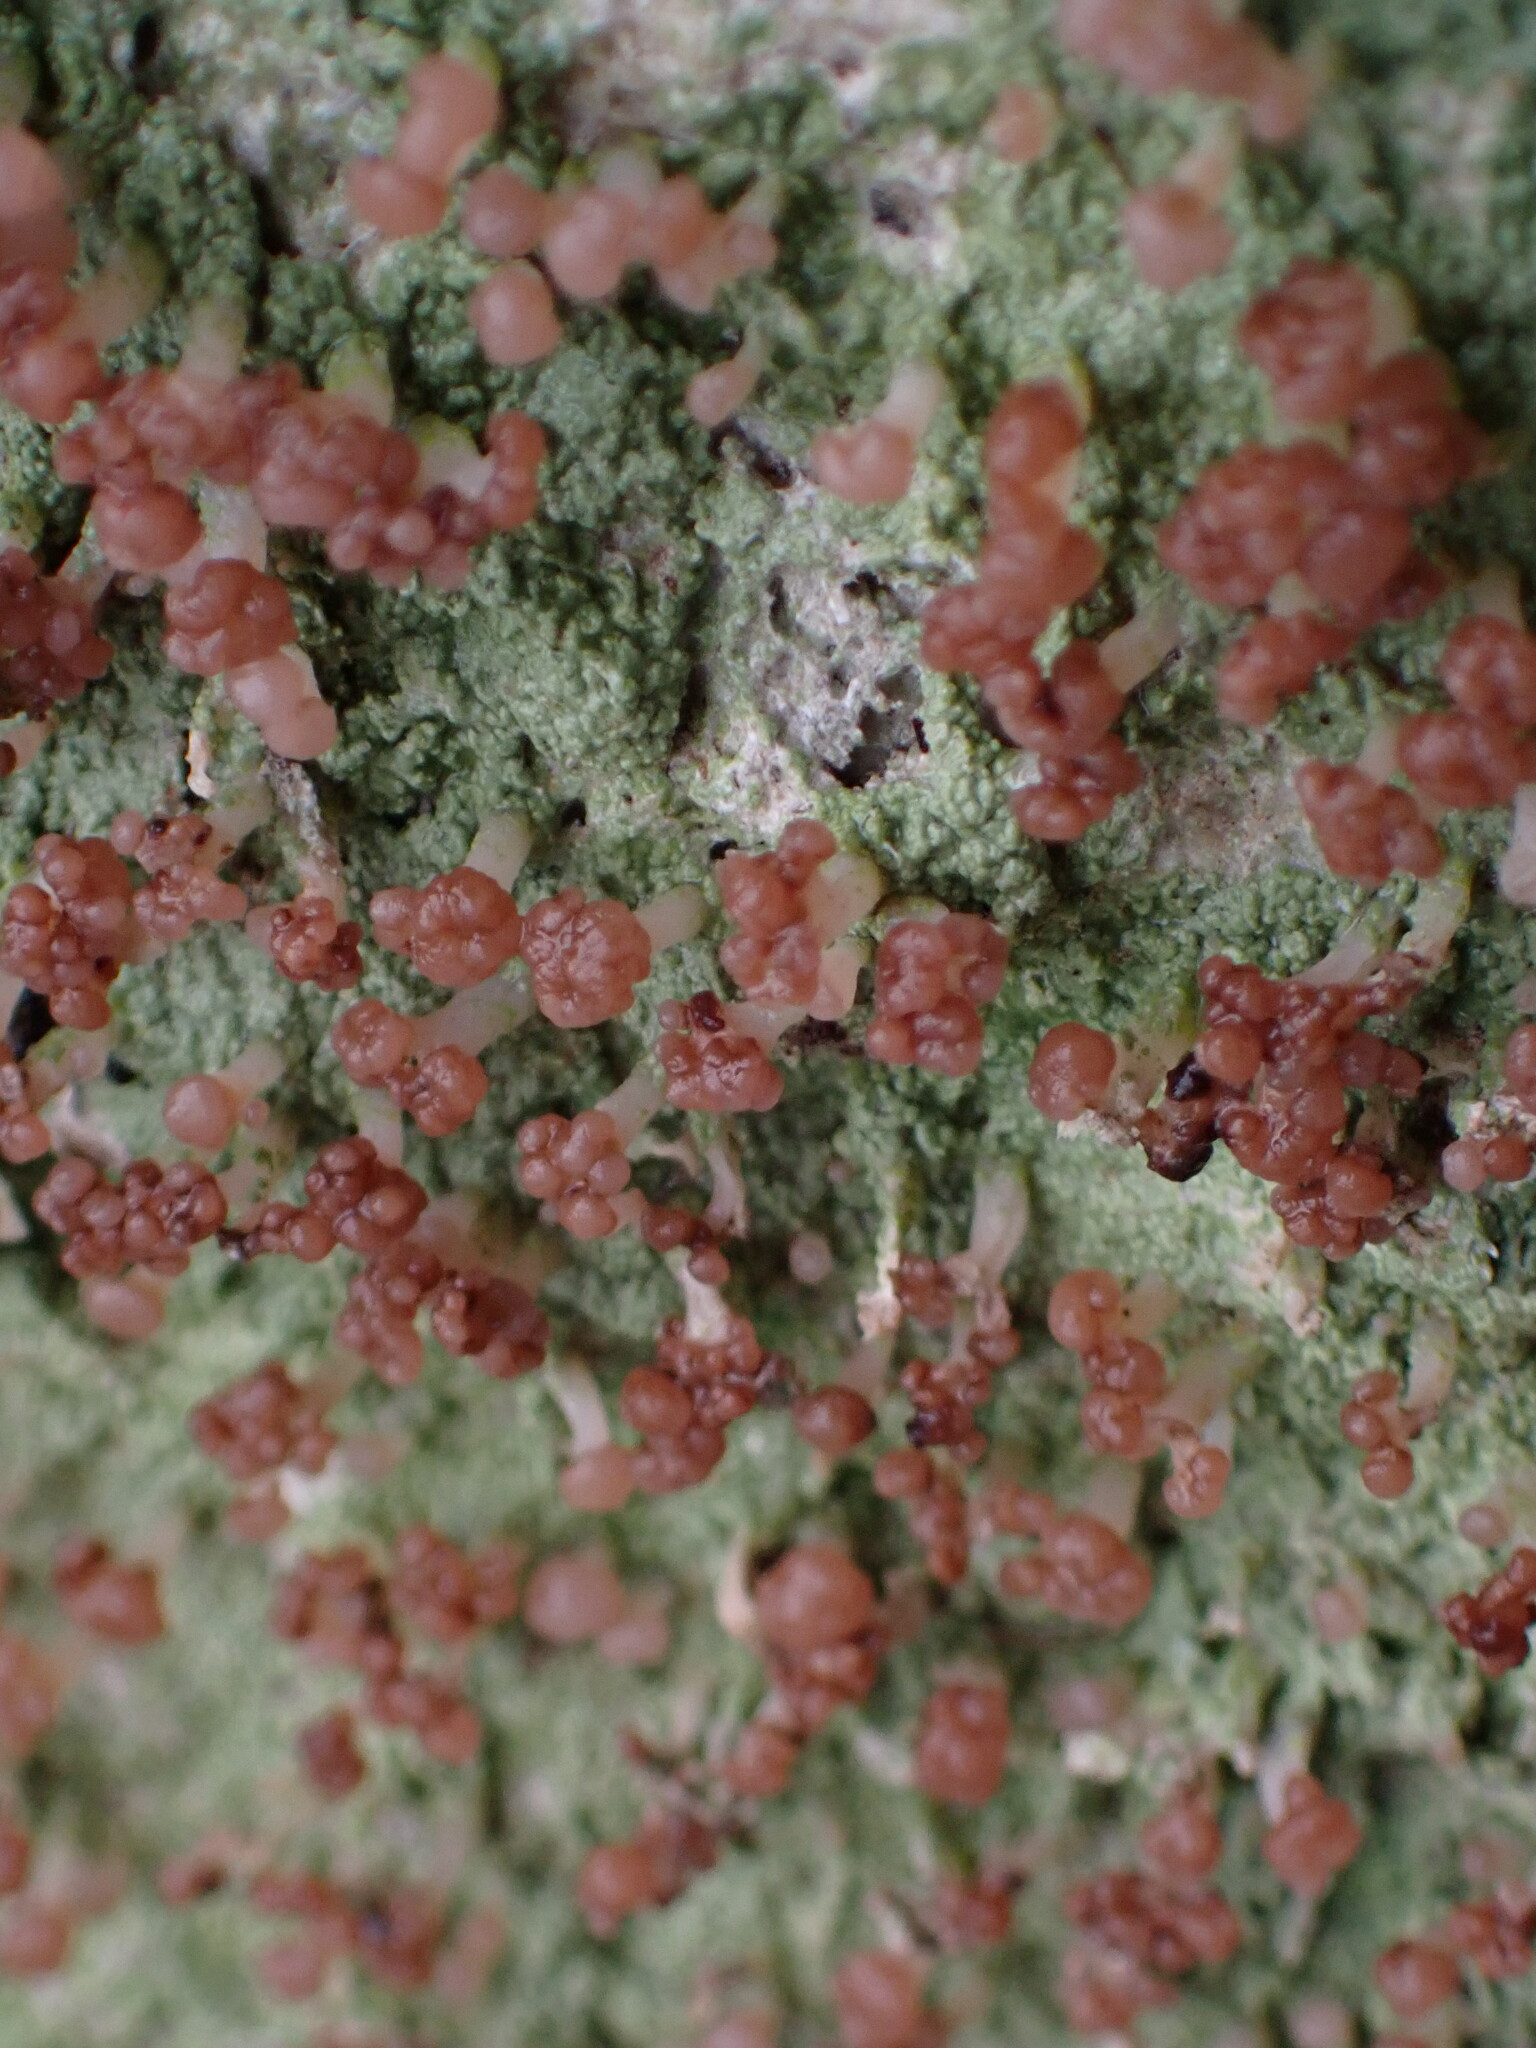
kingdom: Fungi
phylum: Ascomycota
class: Lecanoromycetes
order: Baeomycetales
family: Baeomycetaceae
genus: Baeomyces
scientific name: Baeomyces rufus
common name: Brown beret lichen
